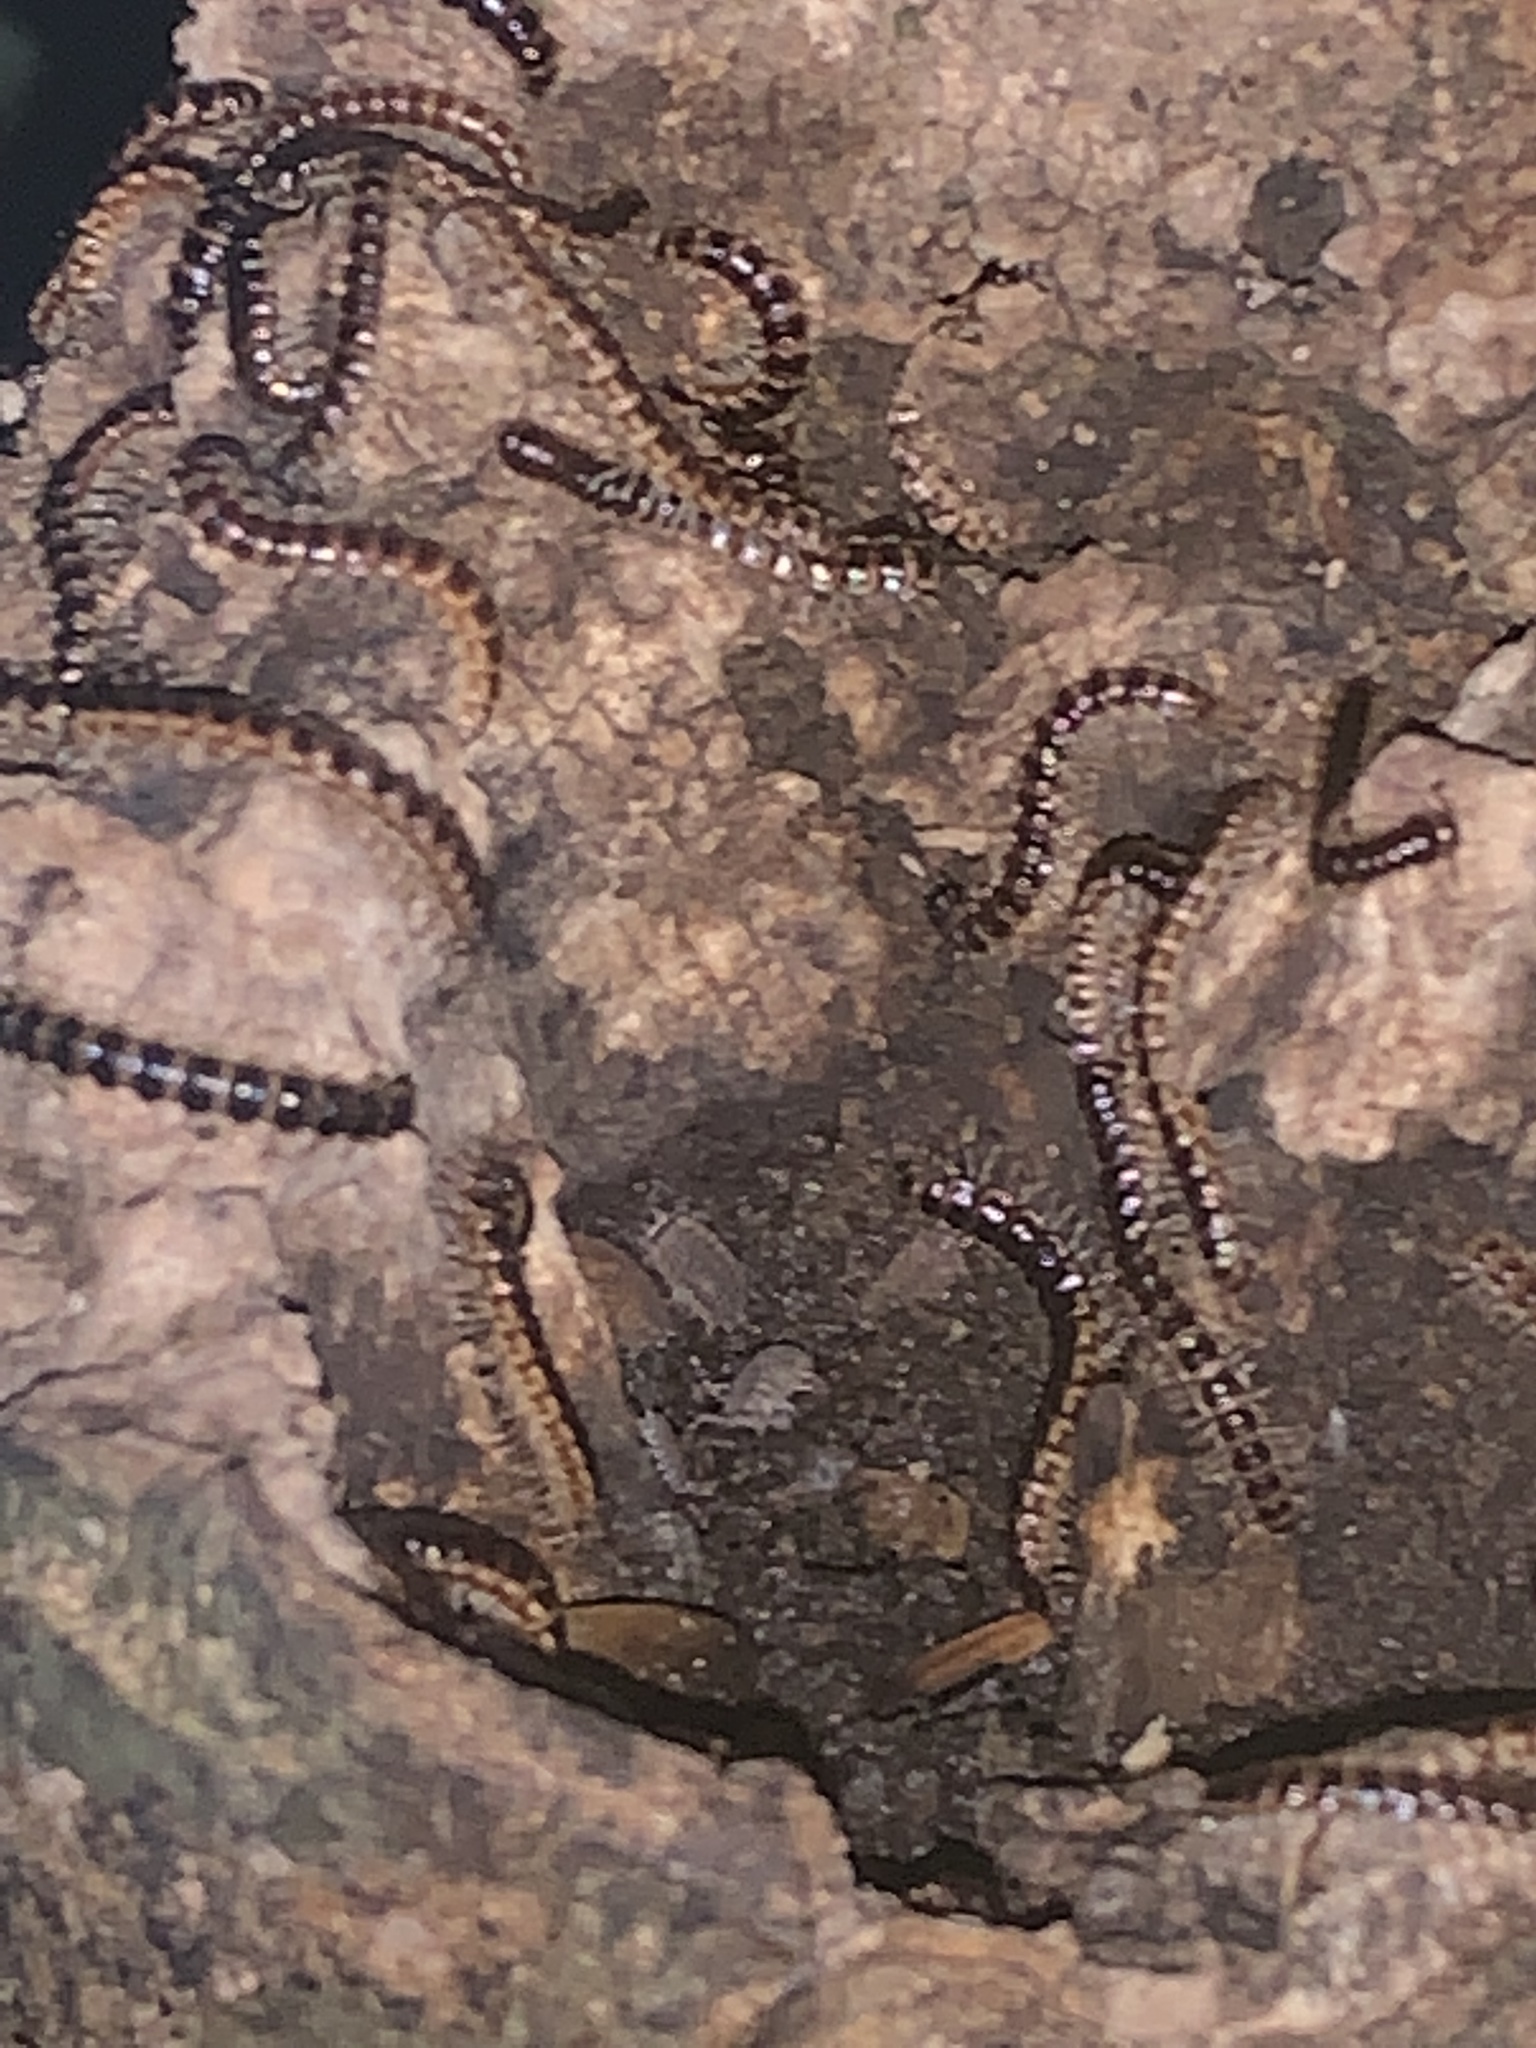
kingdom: Animalia
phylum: Arthropoda
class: Diplopoda
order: Polydesmida
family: Paradoxosomatidae
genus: Oxidus
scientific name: Oxidus gracilis
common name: Greenhouse millipede
